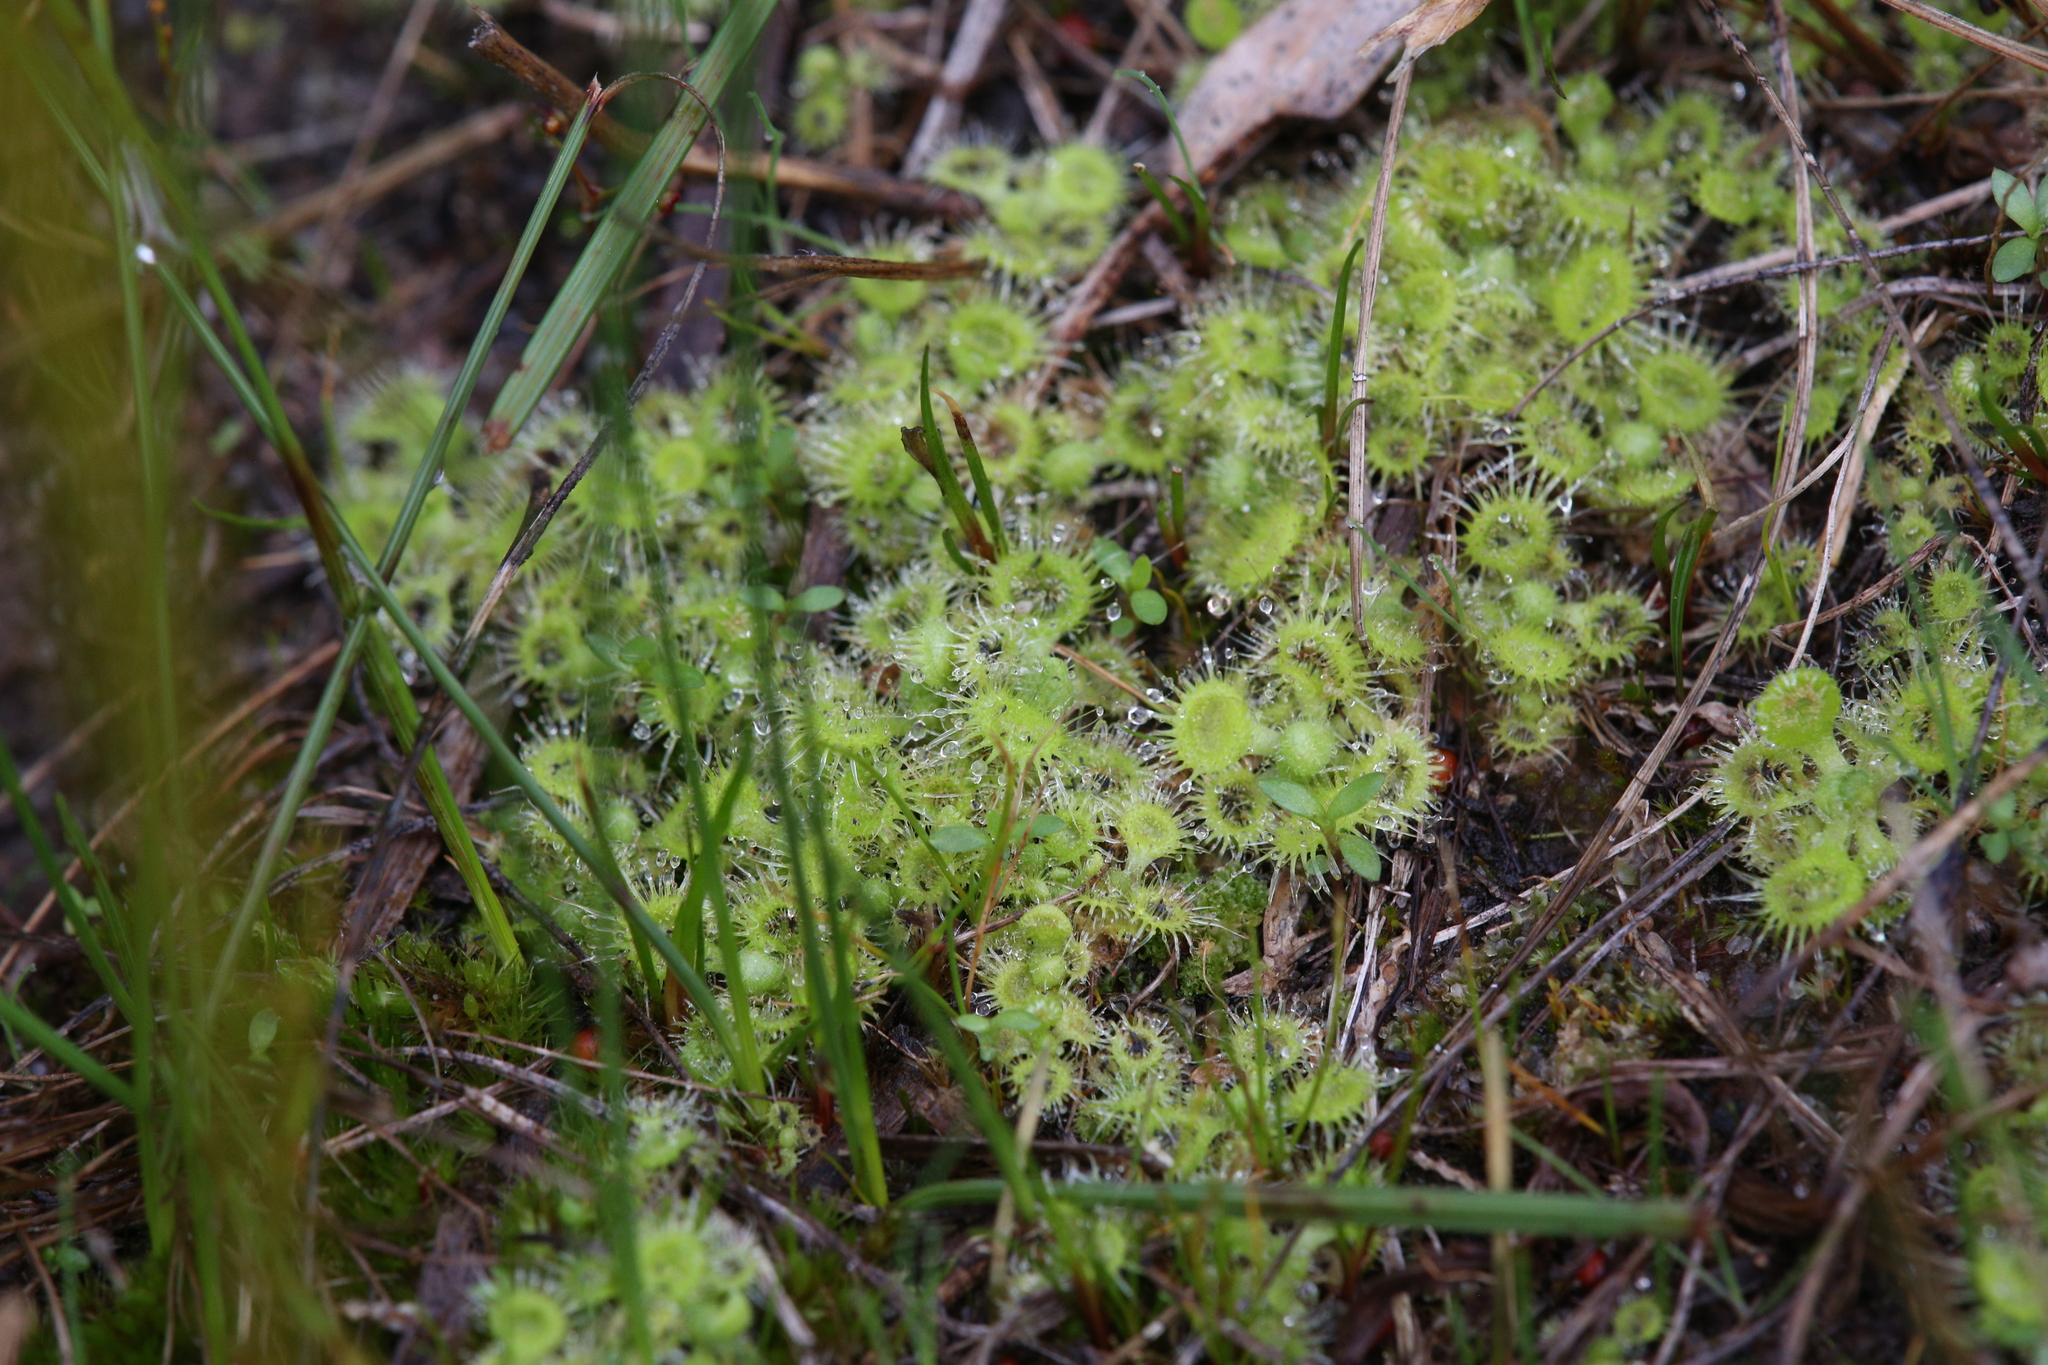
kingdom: Plantae
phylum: Tracheophyta
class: Magnoliopsida
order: Caryophyllales
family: Droseraceae
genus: Drosera
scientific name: Drosera glanduligera
